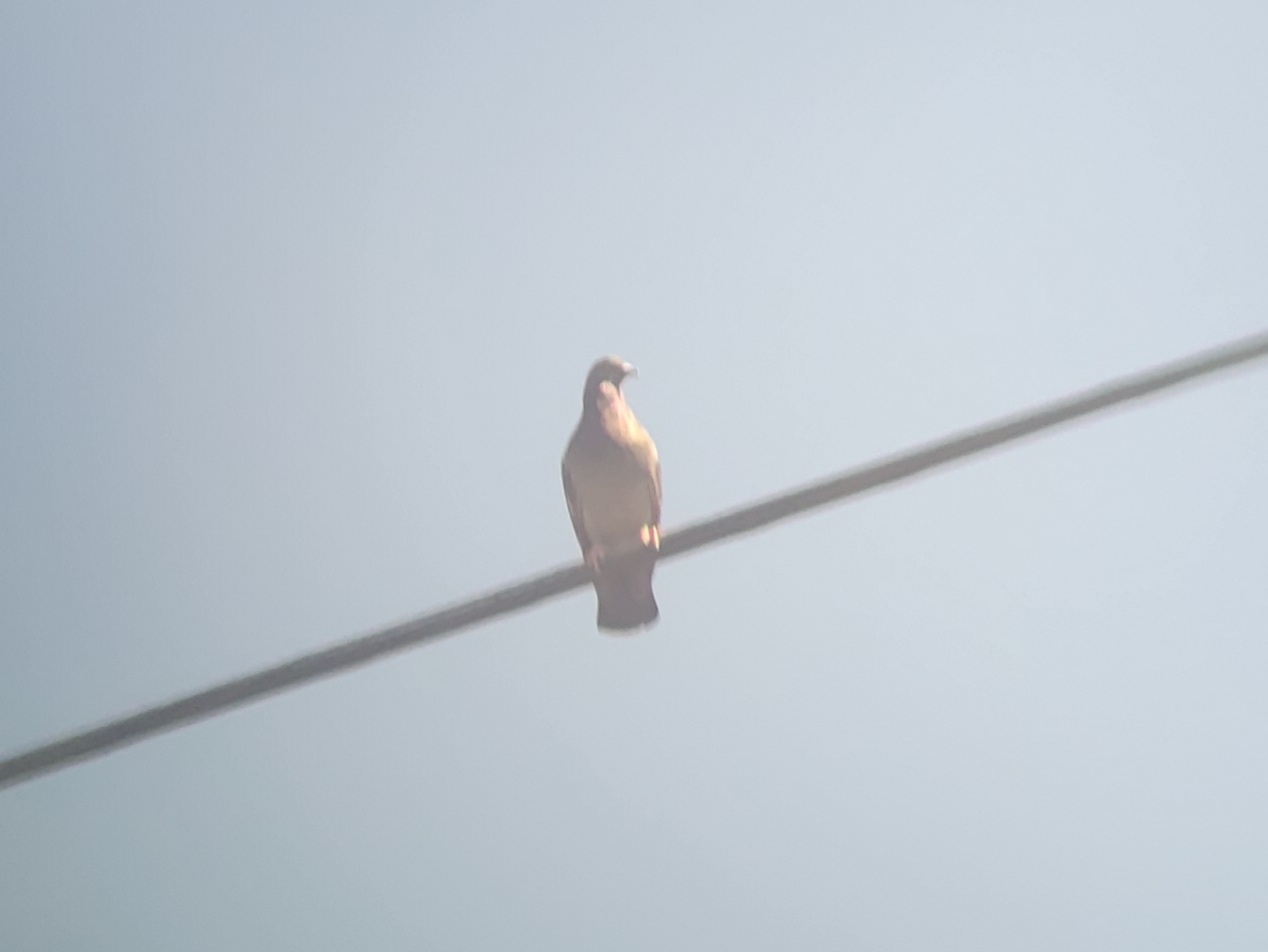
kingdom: Animalia
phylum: Chordata
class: Aves
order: Columbiformes
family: Columbidae
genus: Columba
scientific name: Columba livia
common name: Rock pigeon
